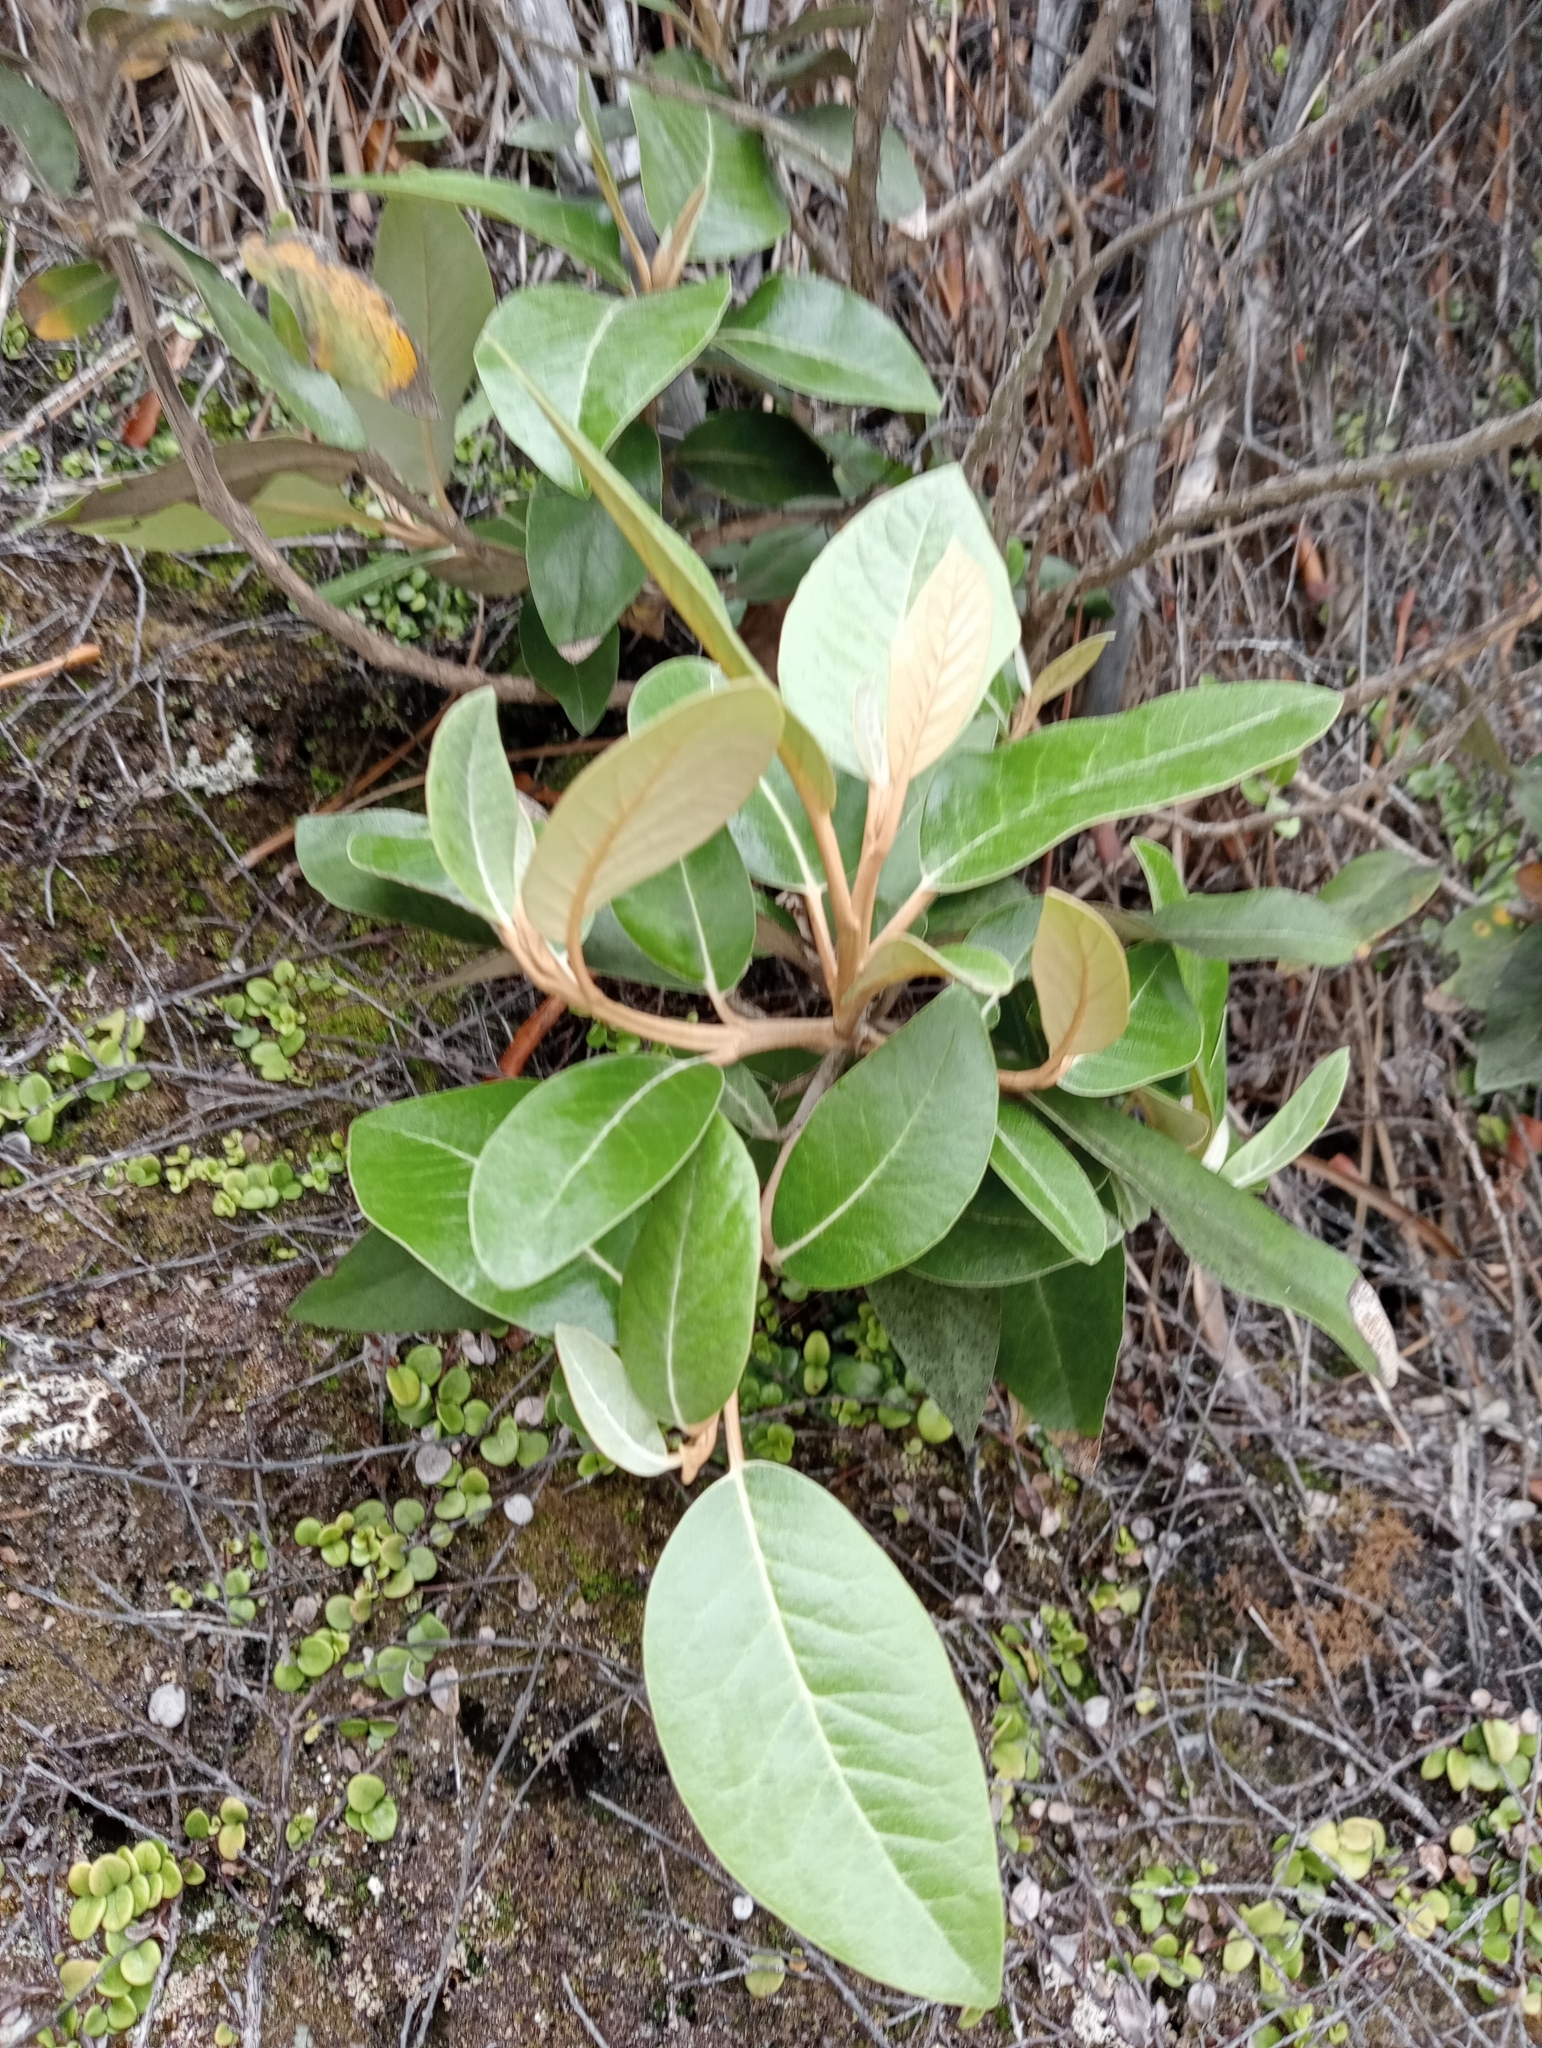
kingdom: Plantae
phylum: Tracheophyta
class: Magnoliopsida
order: Asterales
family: Asteraceae
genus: Olearia
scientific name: Olearia avicenniifolia
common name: Mangrove-leaf daisybush
